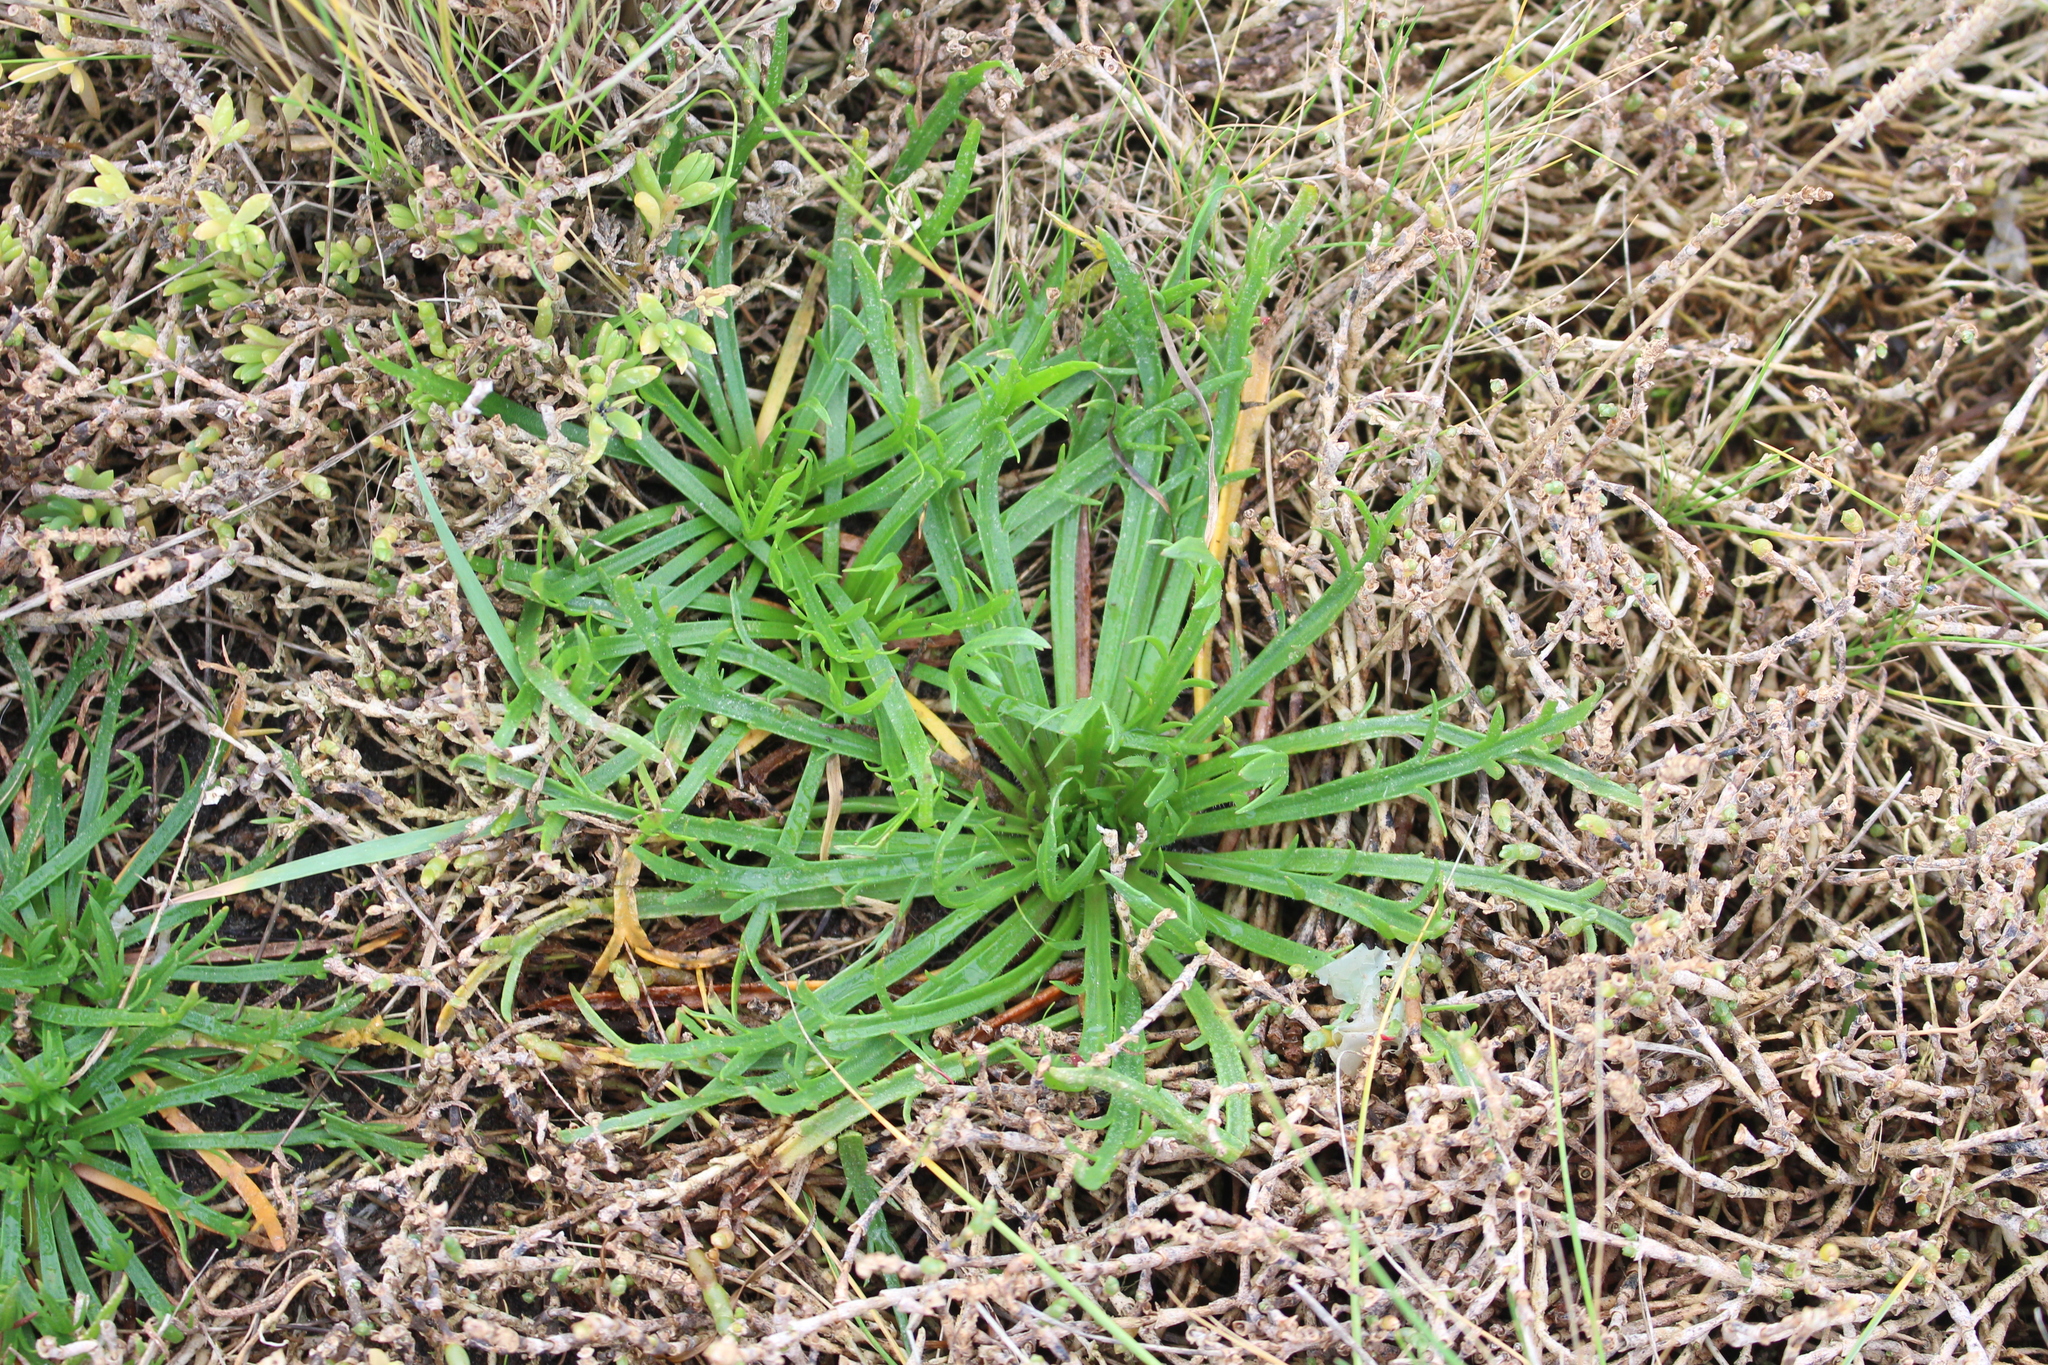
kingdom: Plantae
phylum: Tracheophyta
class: Magnoliopsida
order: Lamiales
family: Plantaginaceae
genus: Plantago
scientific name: Plantago coronopus
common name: Buck's-horn plantain
